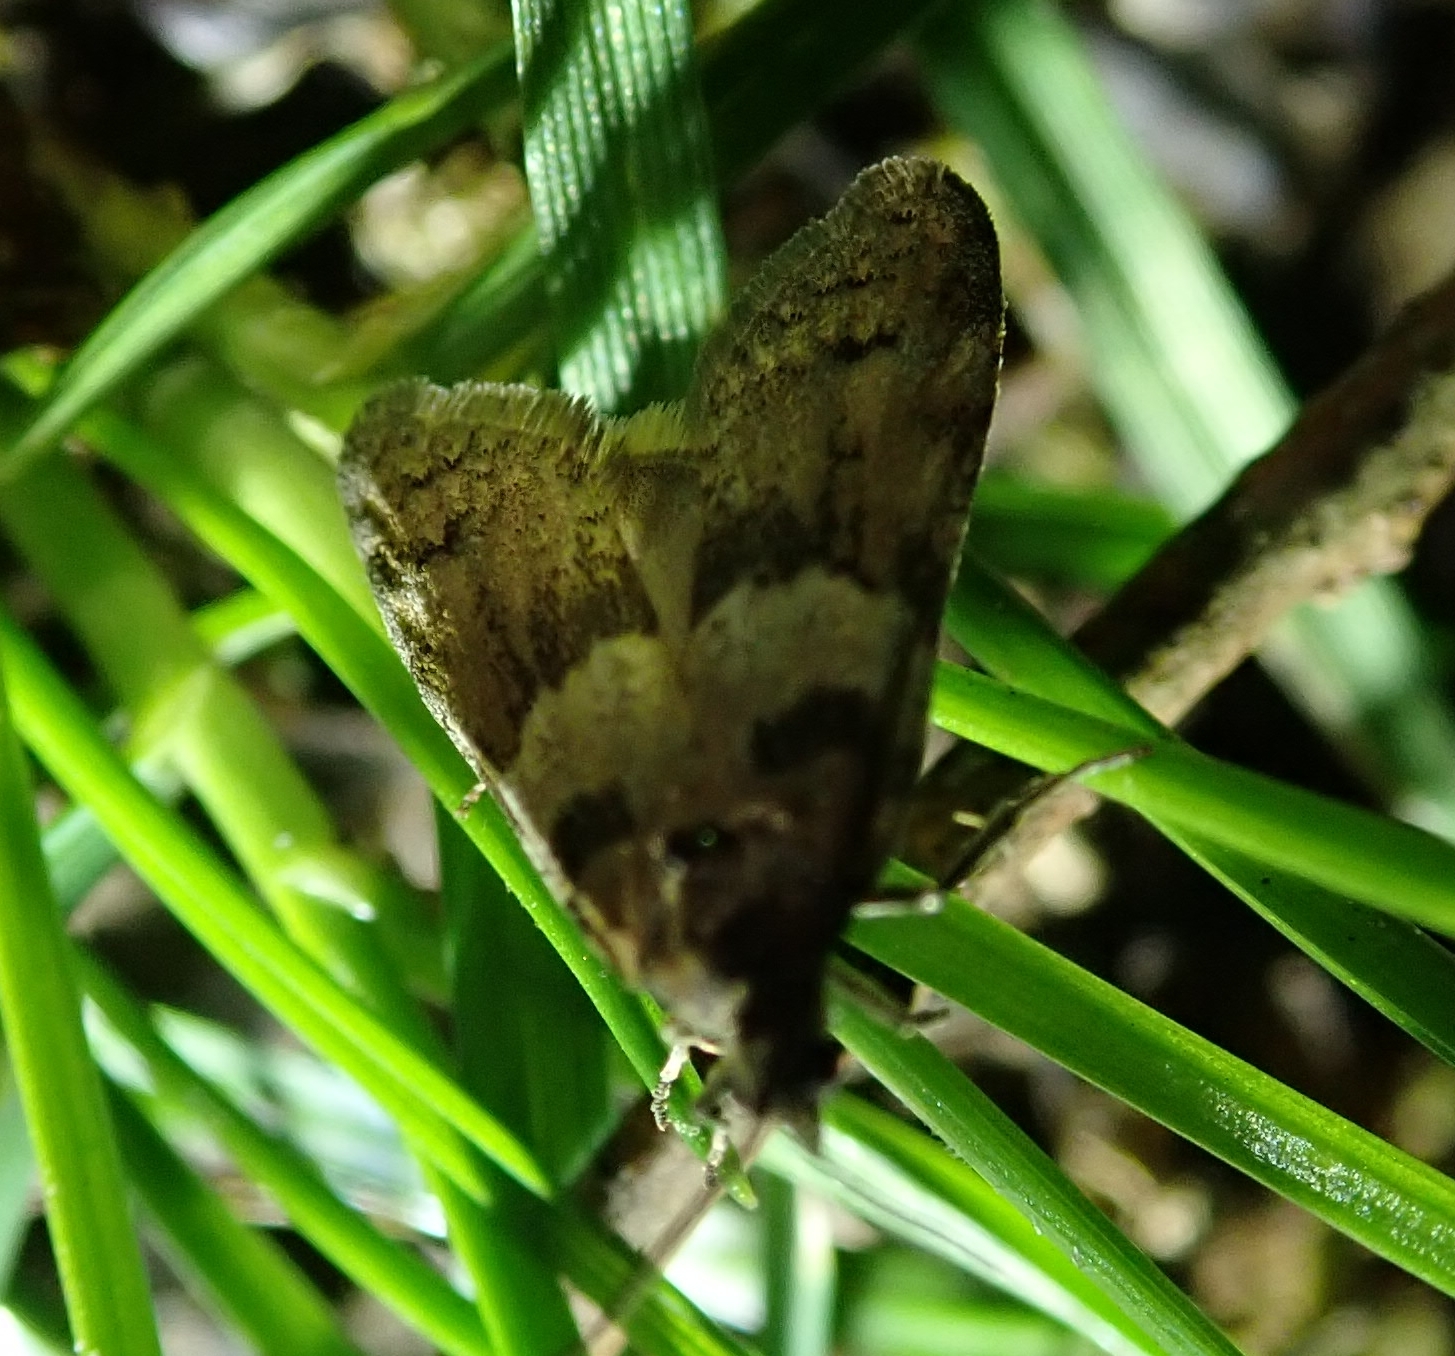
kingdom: Animalia
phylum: Arthropoda
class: Insecta
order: Lepidoptera
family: Tortricidae
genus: Tortricodes
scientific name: Tortricodes alternella
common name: Winter shade
